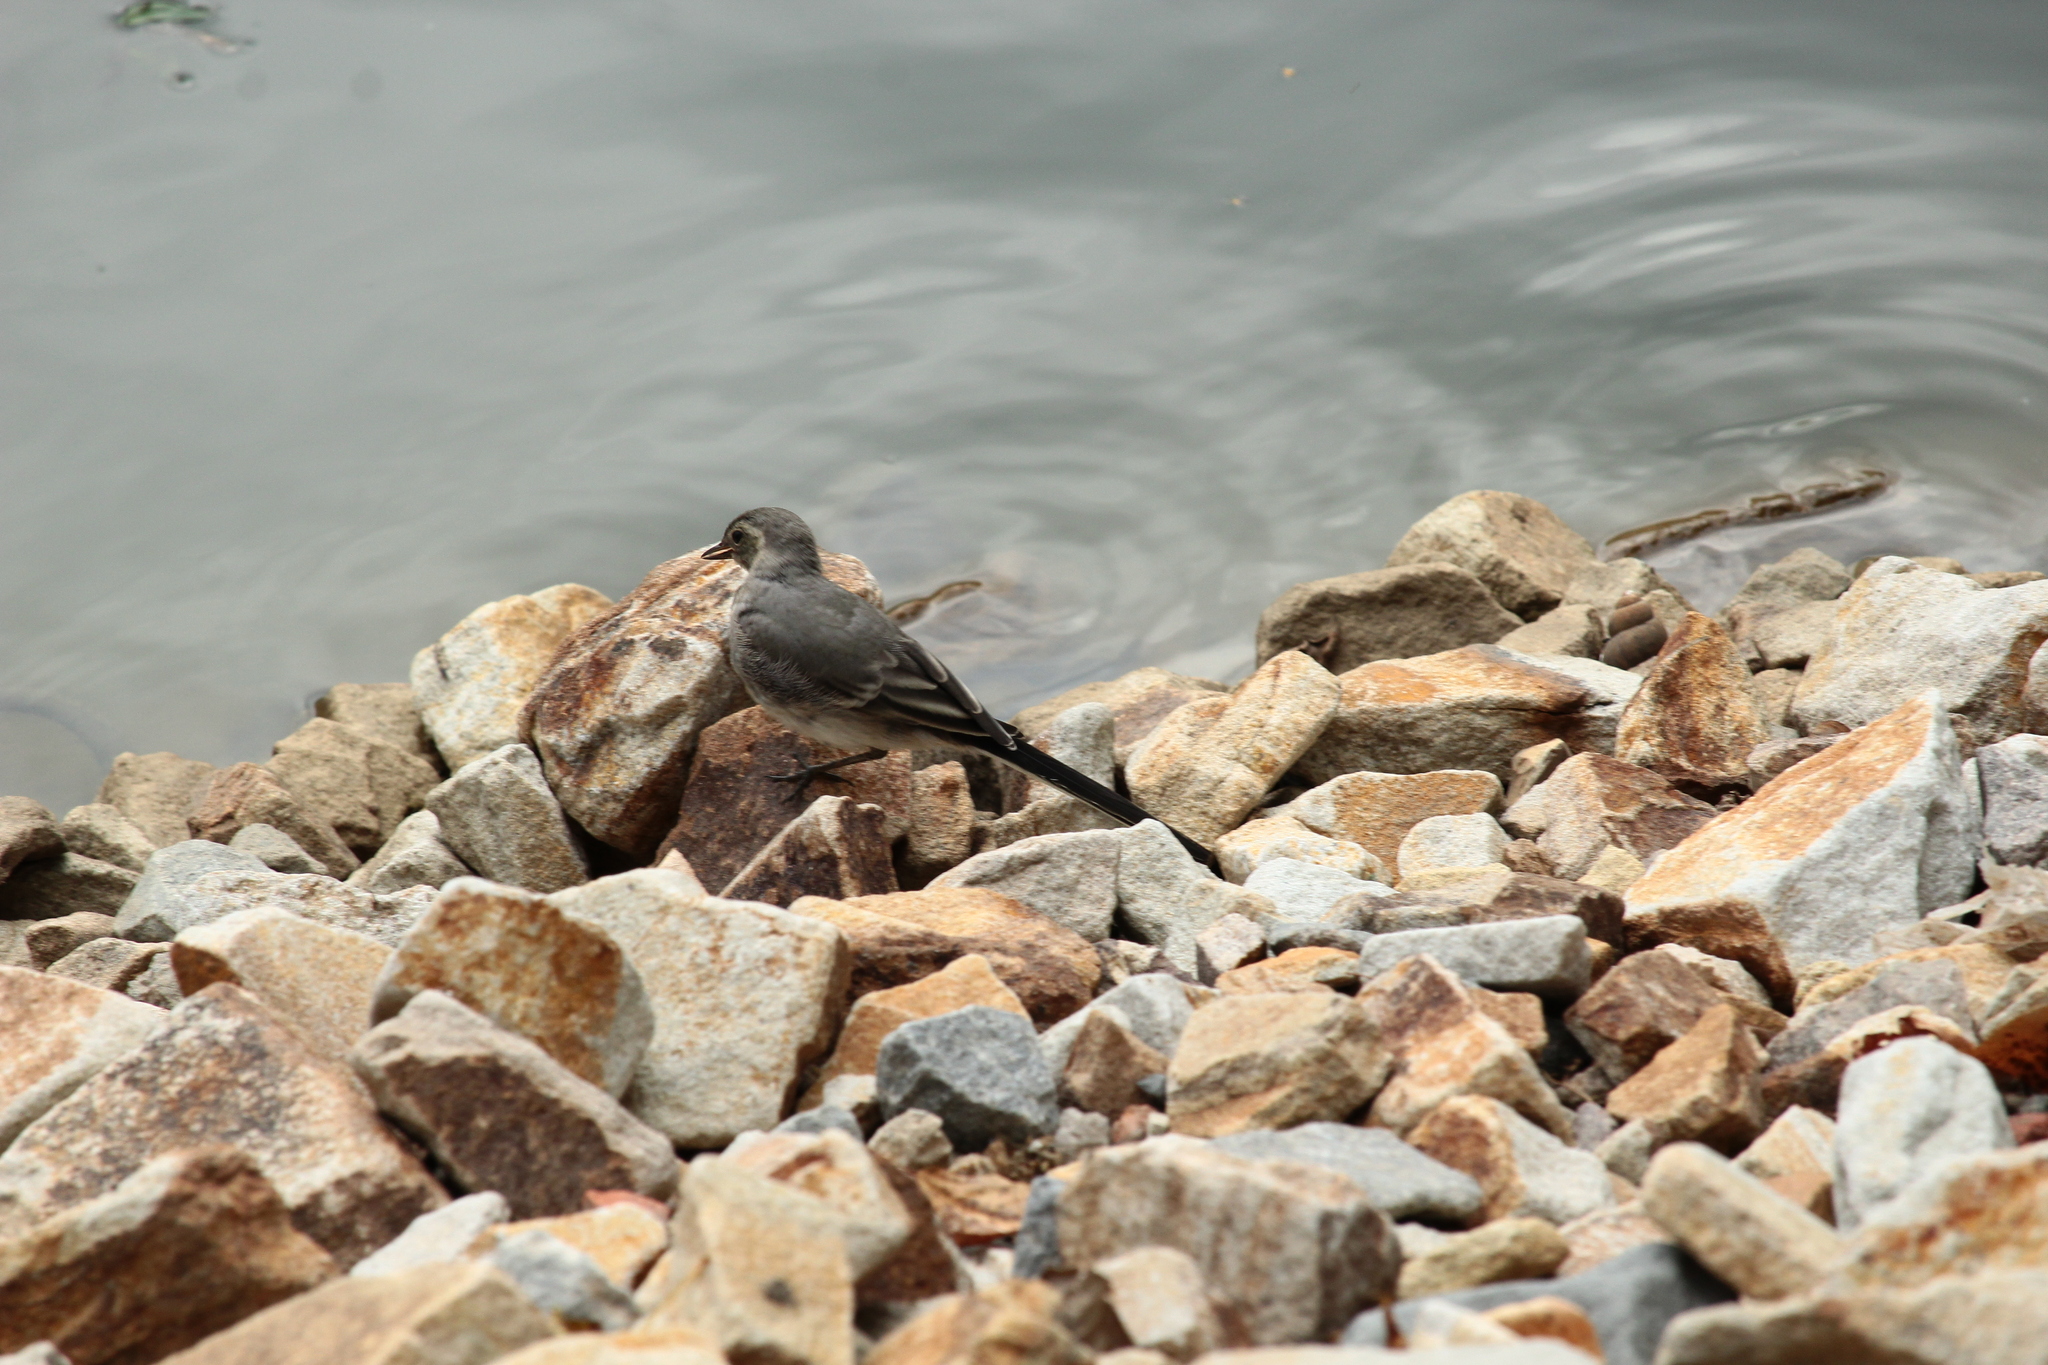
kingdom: Animalia
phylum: Chordata
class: Aves
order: Passeriformes
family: Motacillidae
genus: Motacilla
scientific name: Motacilla alba
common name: White wagtail
